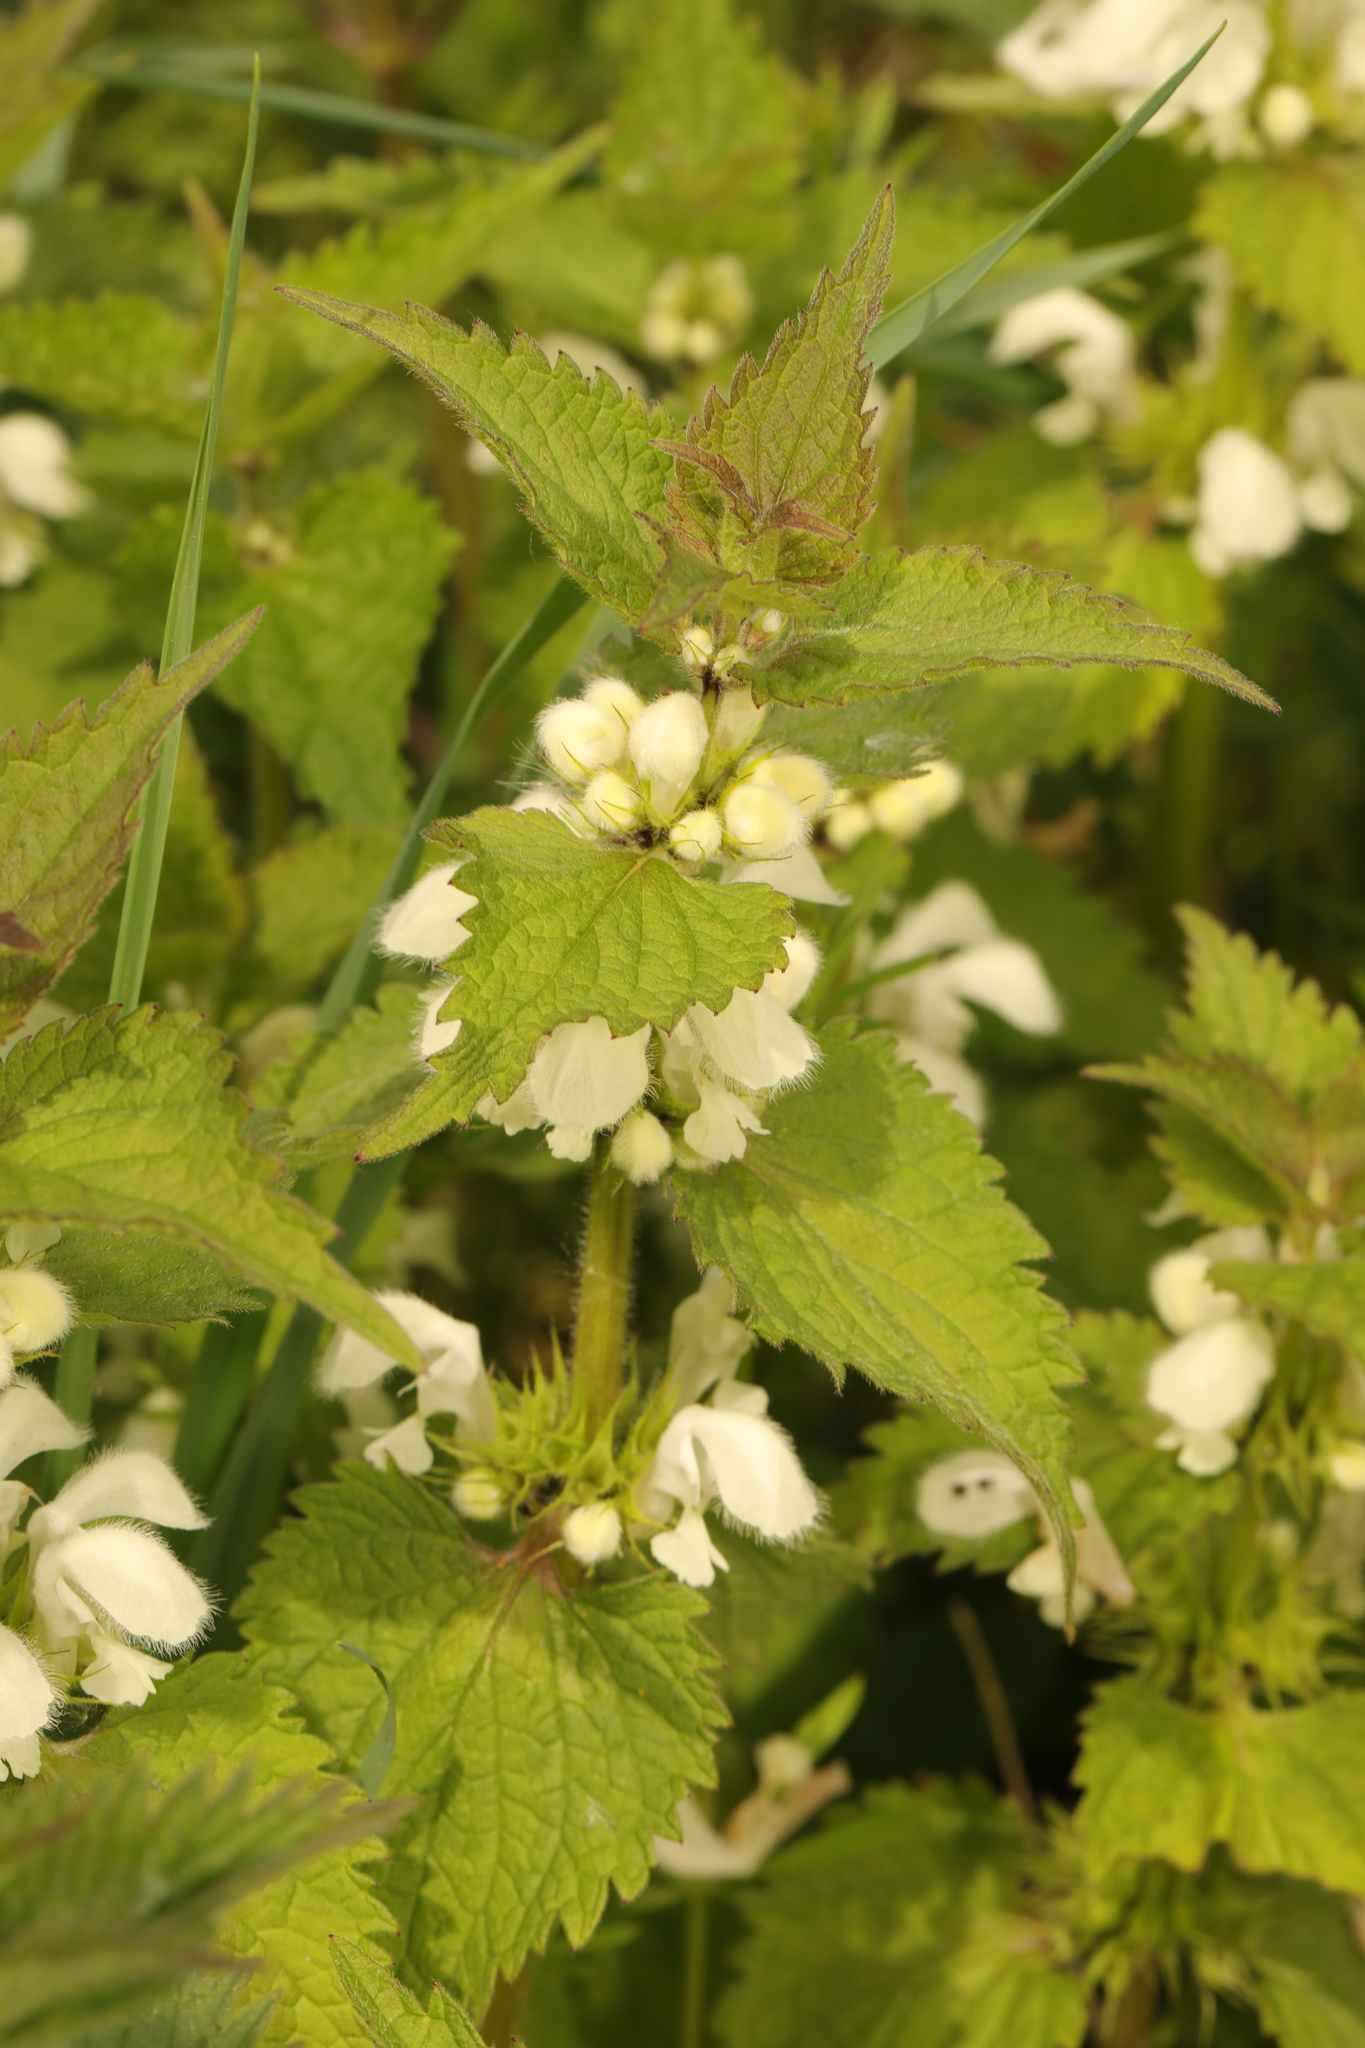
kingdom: Plantae
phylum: Tracheophyta
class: Magnoliopsida
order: Lamiales
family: Lamiaceae
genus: Lamium
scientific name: Lamium album
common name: White dead-nettle
